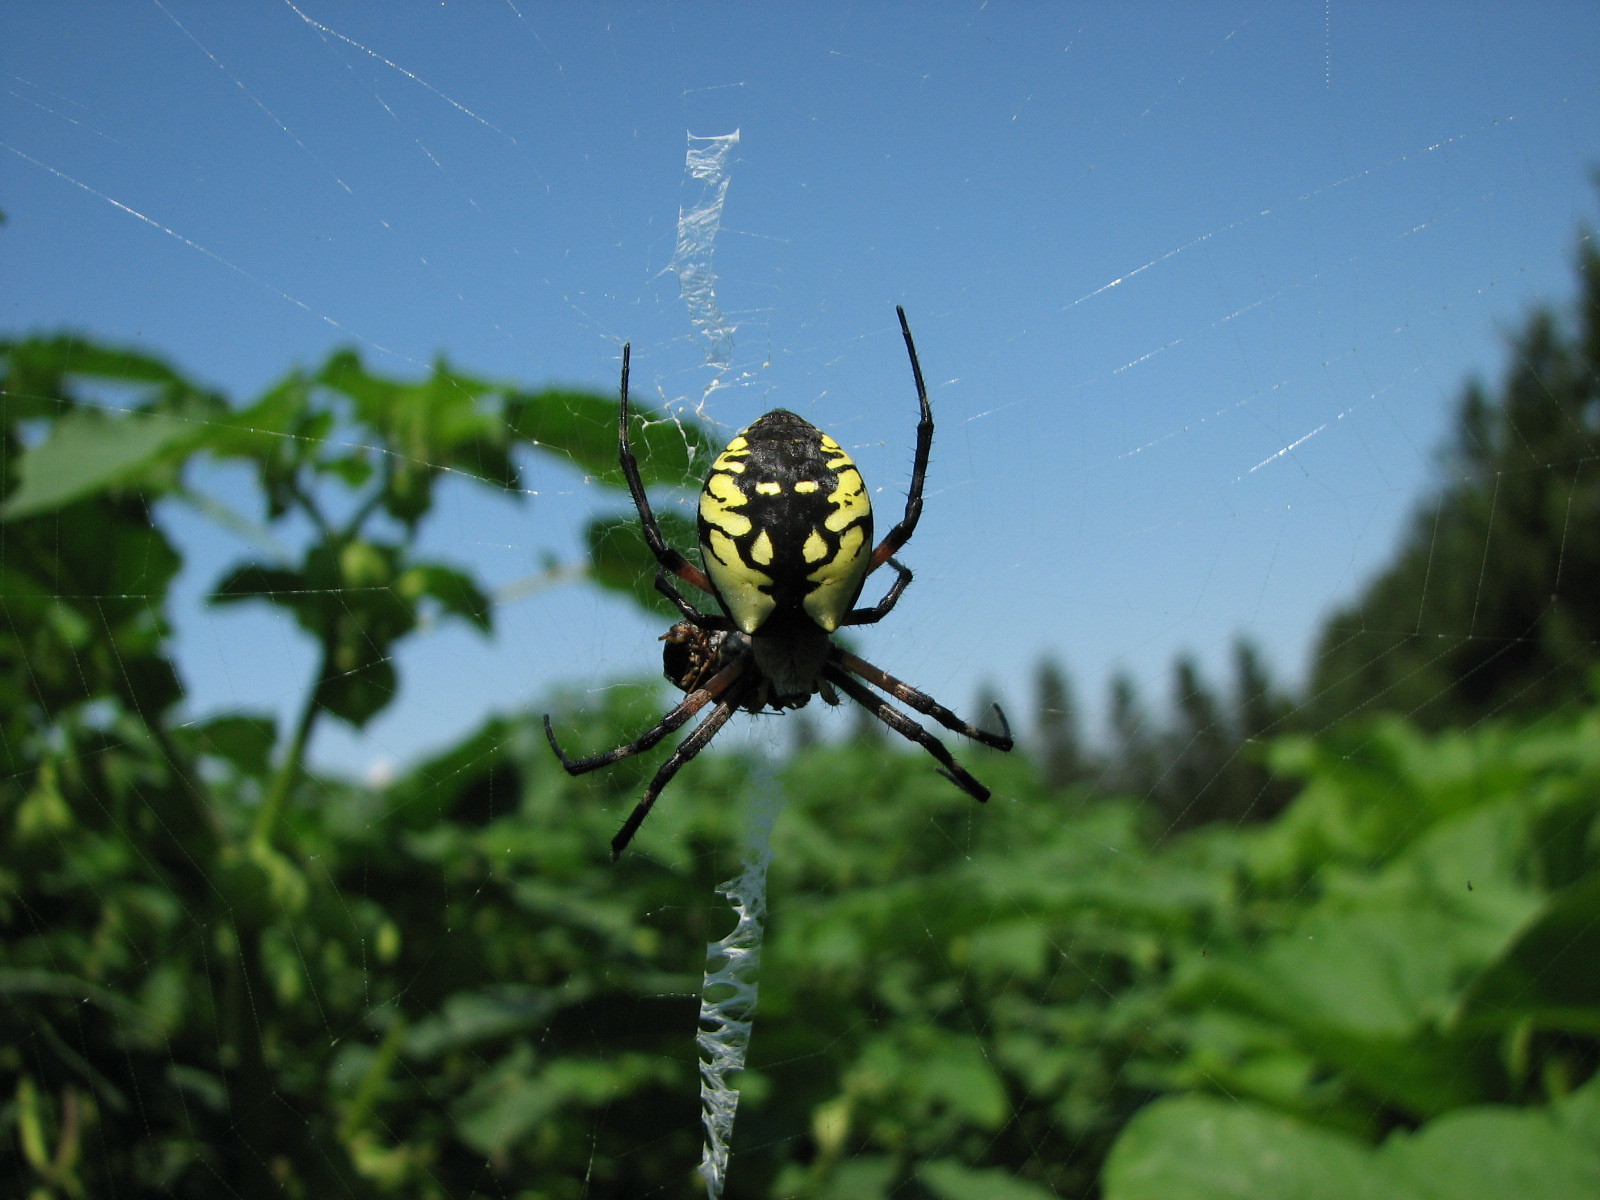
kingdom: Animalia
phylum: Arthropoda
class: Arachnida
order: Araneae
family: Araneidae
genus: Argiope
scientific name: Argiope aurantia
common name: Orb weavers
